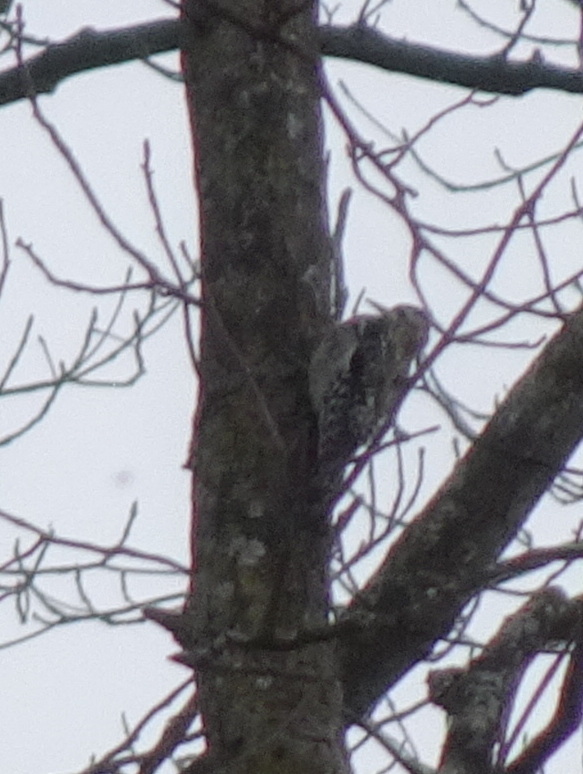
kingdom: Animalia
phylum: Chordata
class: Aves
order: Piciformes
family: Picidae
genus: Sphyrapicus
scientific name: Sphyrapicus varius
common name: Yellow-bellied sapsucker
